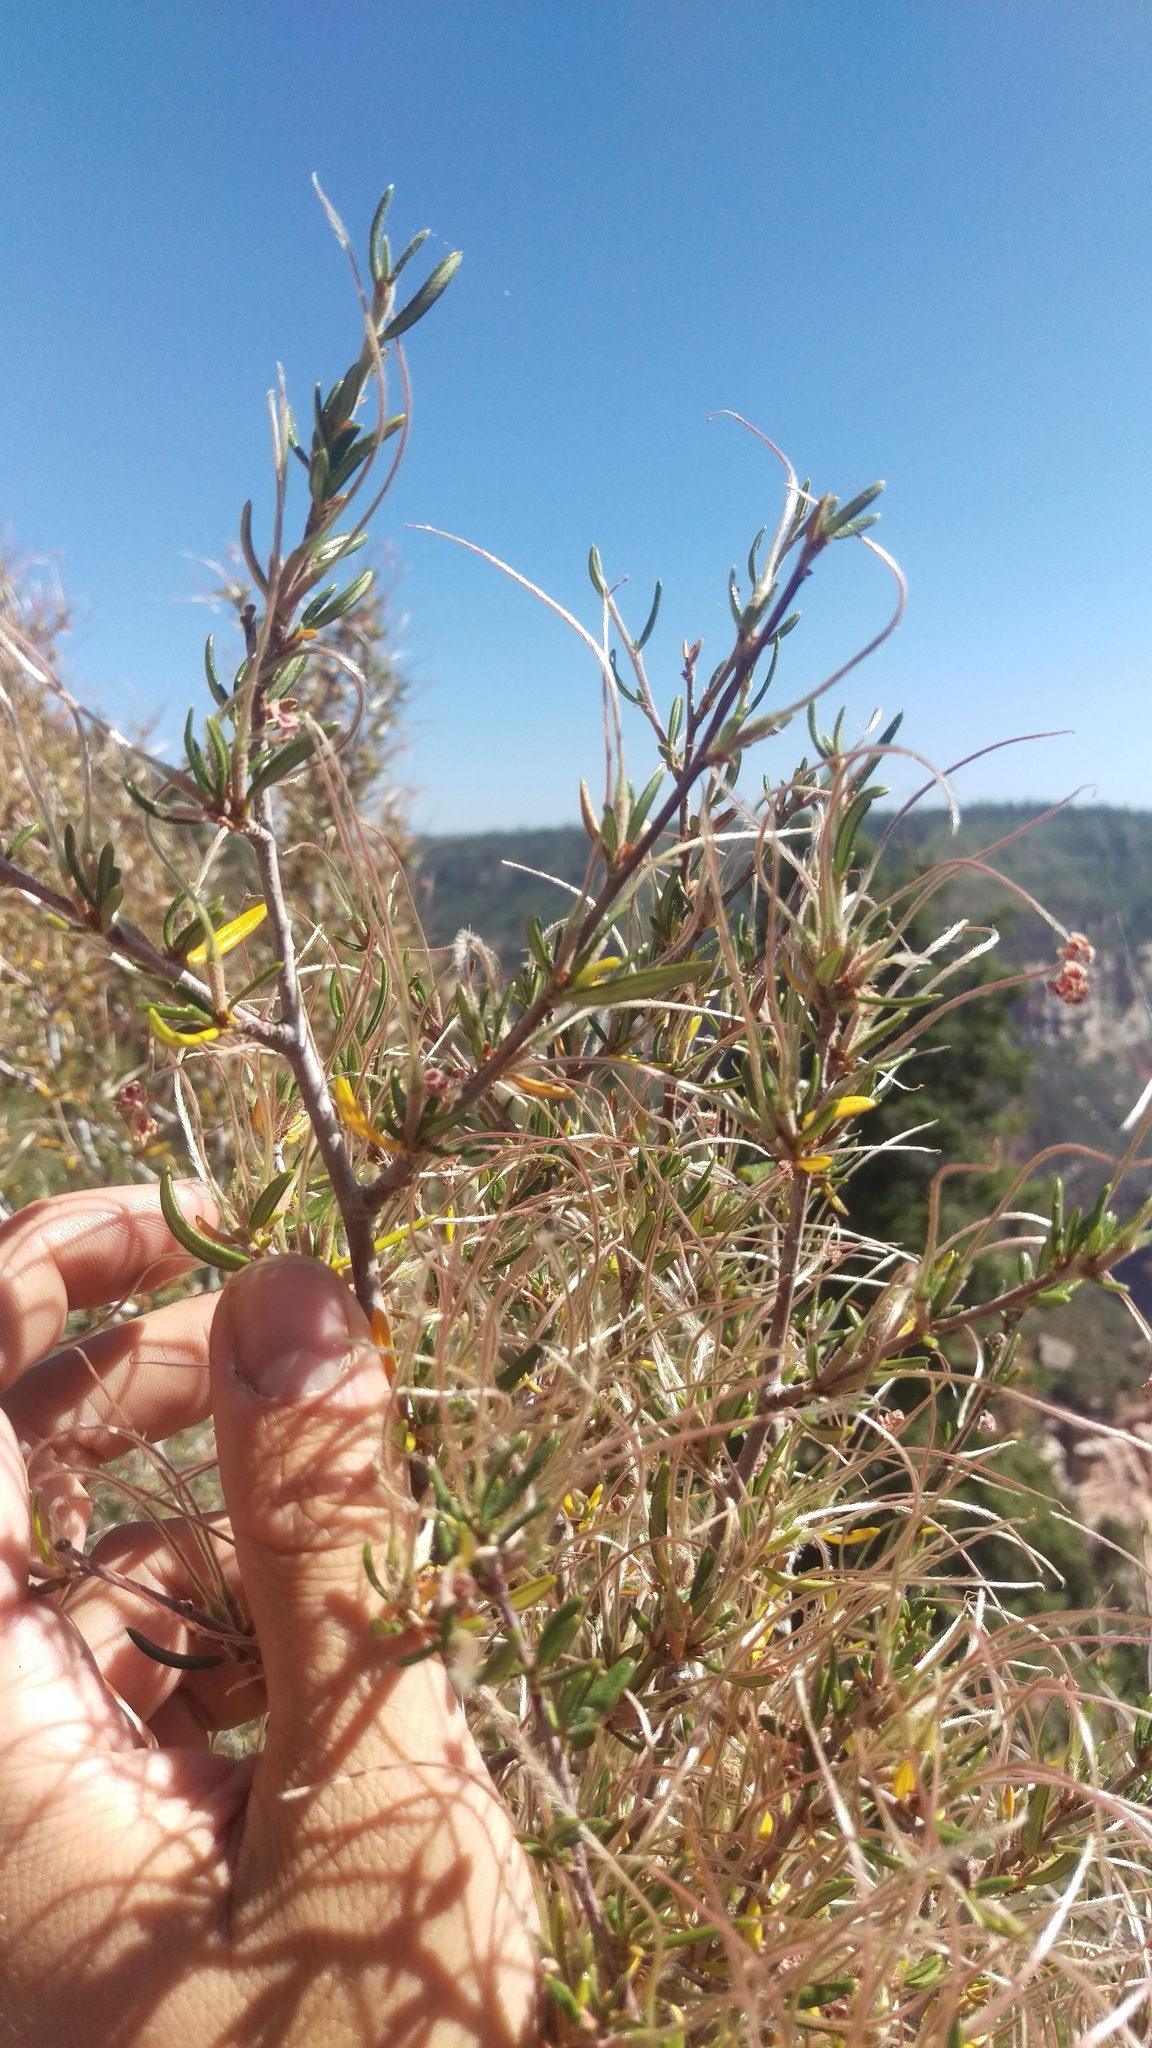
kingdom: Plantae
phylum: Tracheophyta
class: Magnoliopsida
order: Rosales
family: Rosaceae
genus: Cercocarpus
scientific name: Cercocarpus ledifolius
